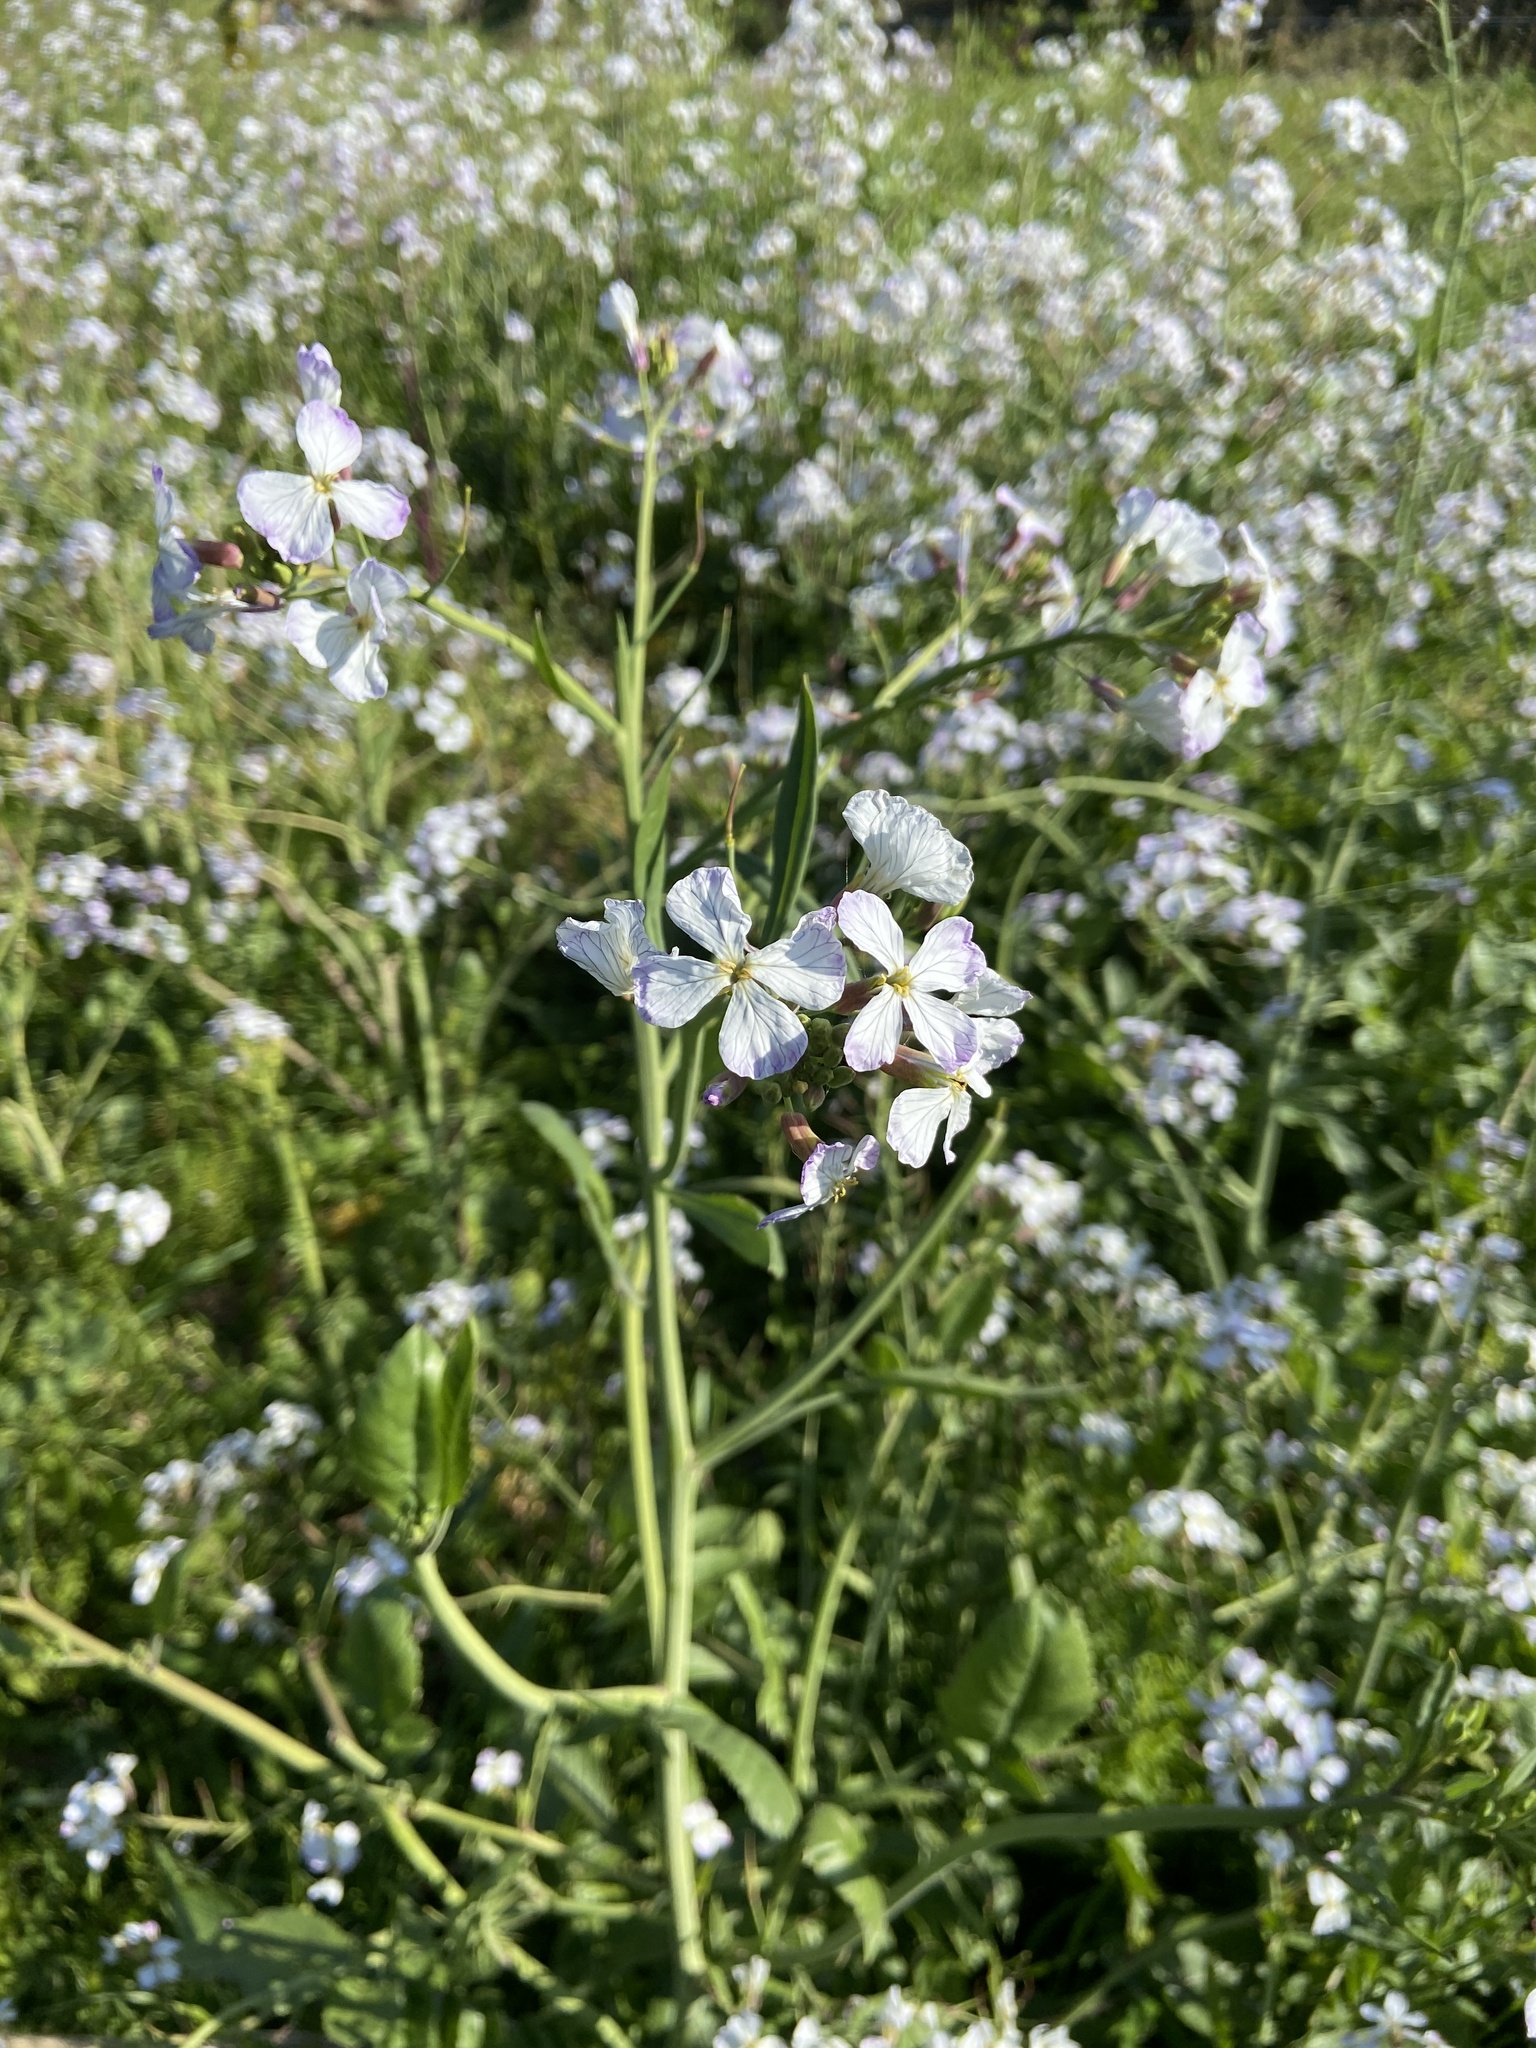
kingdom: Plantae
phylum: Tracheophyta
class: Magnoliopsida
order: Brassicales
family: Brassicaceae
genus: Raphanus
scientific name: Raphanus sativus
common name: Cultivated radish
